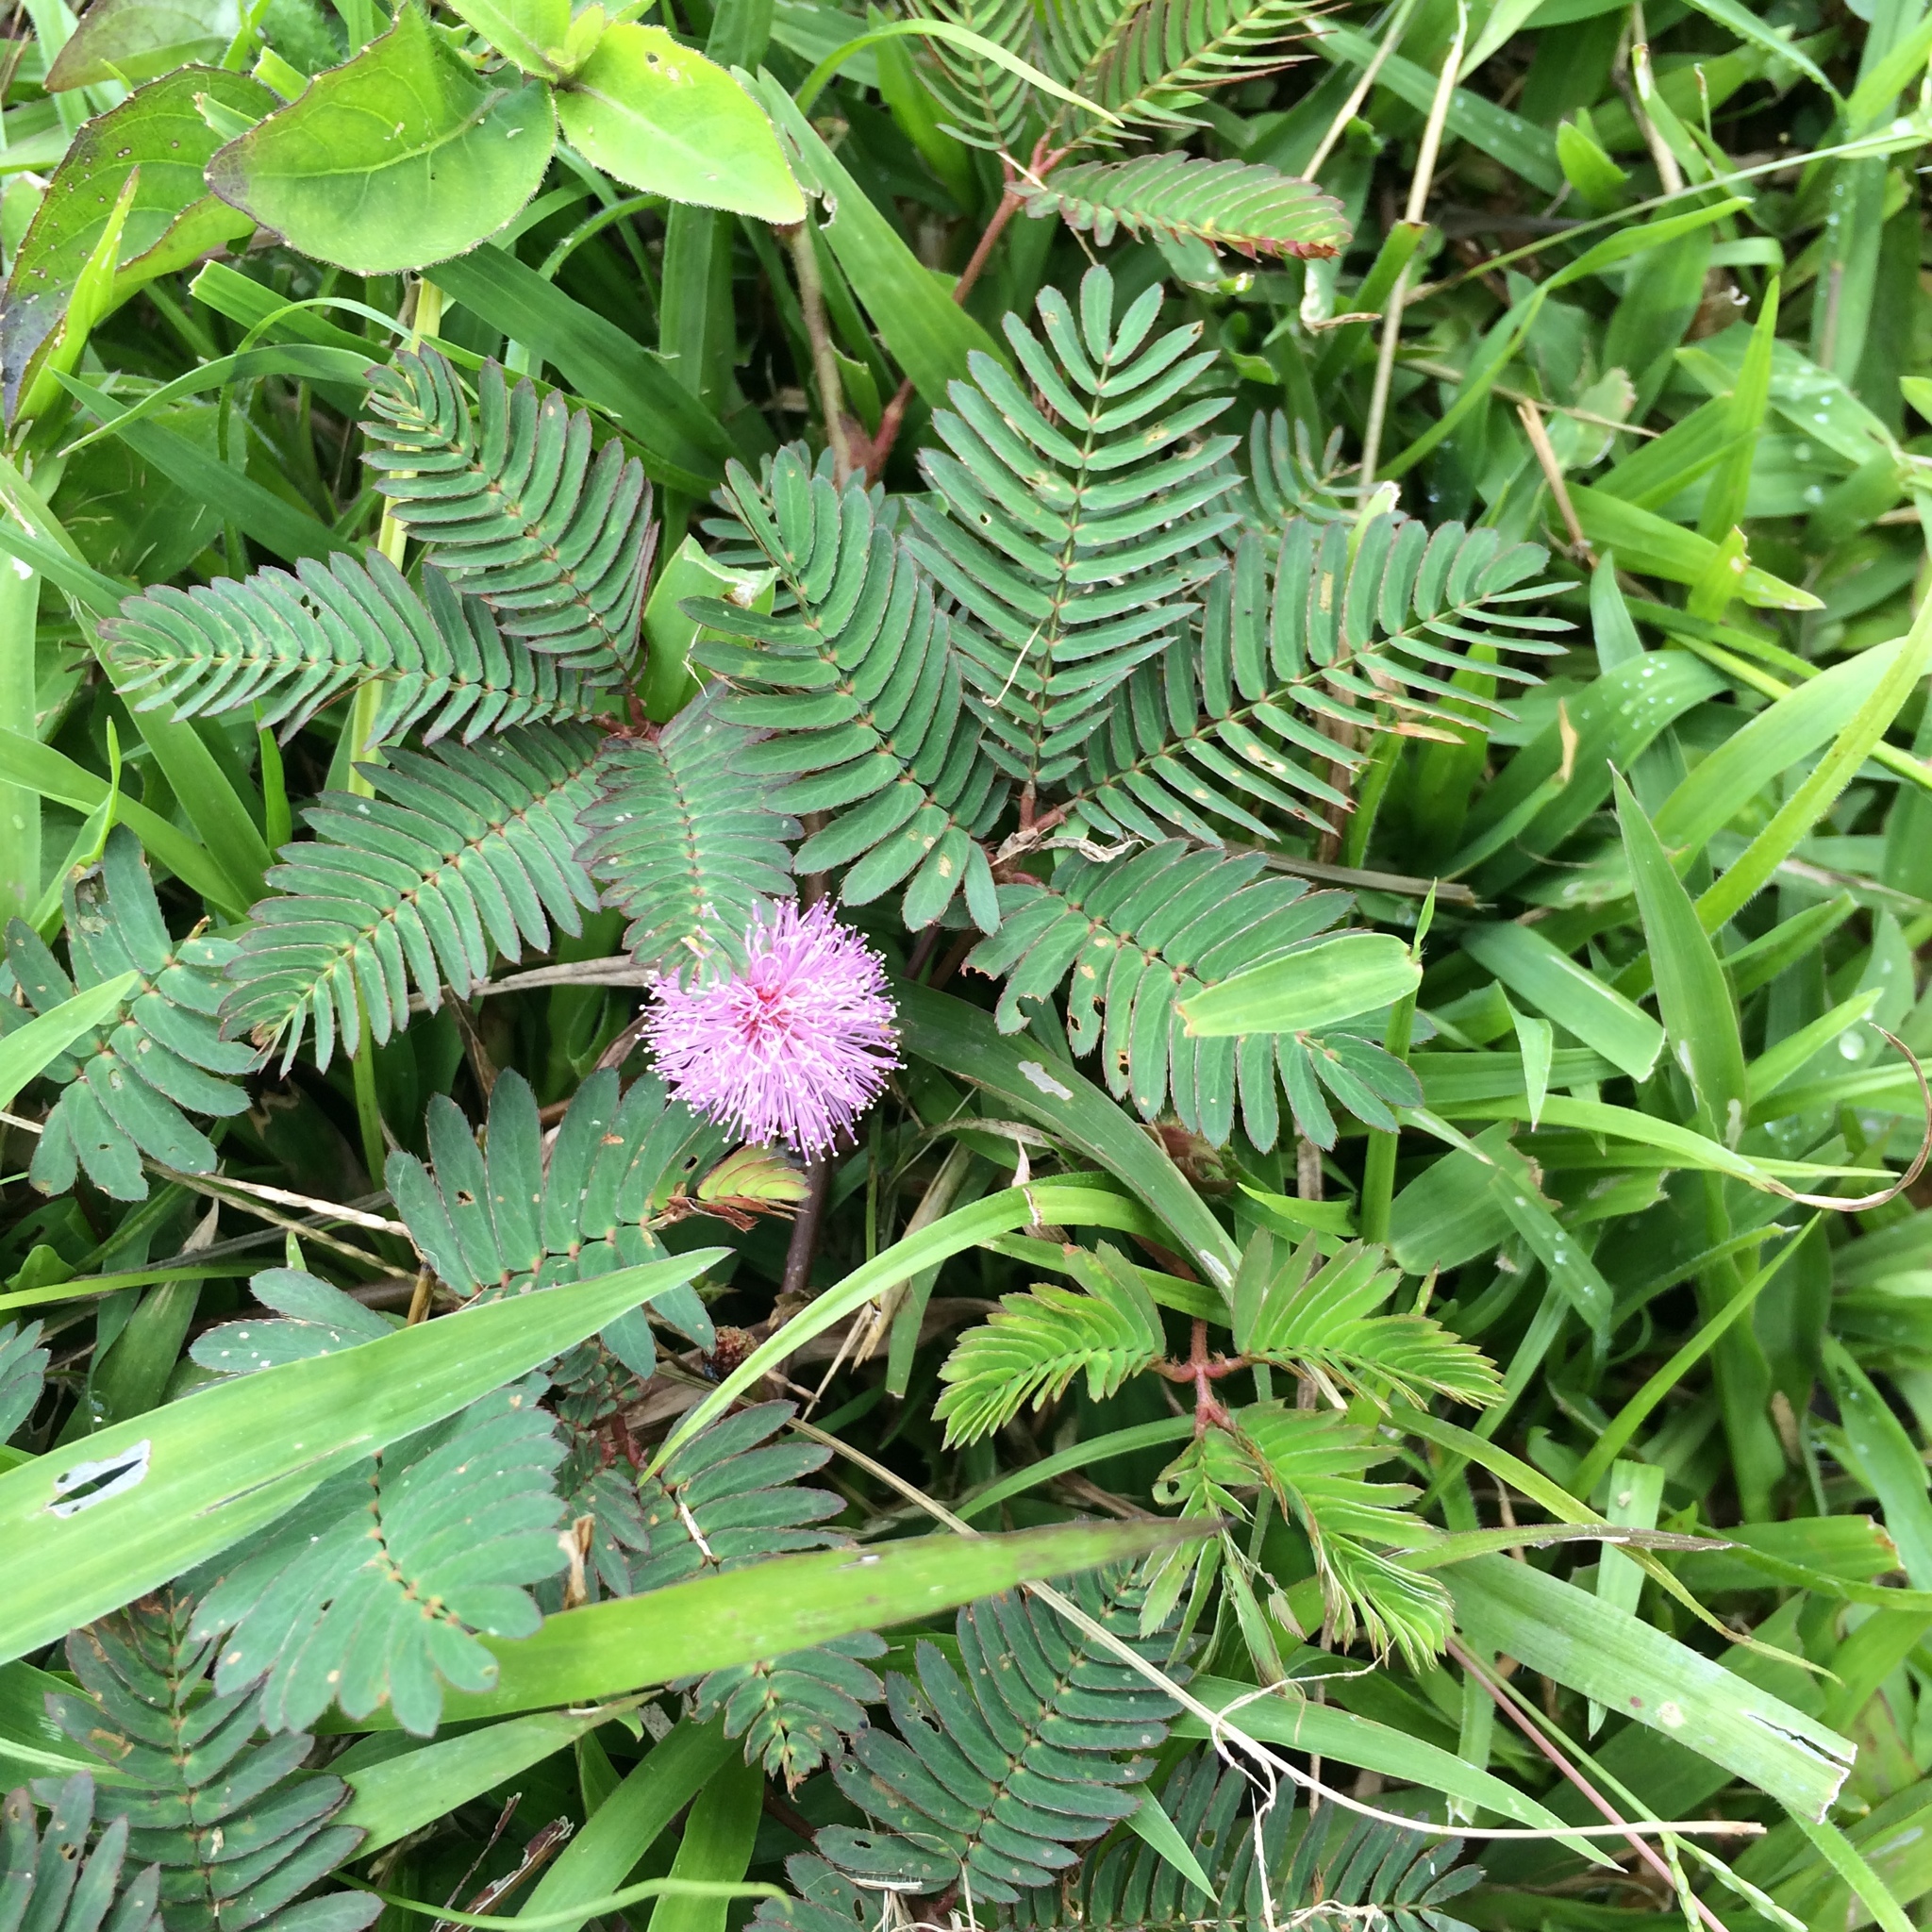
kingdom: Plantae
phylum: Tracheophyta
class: Magnoliopsida
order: Fabales
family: Fabaceae
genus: Mimosa
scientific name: Mimosa pudica
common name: Sensitive plant
